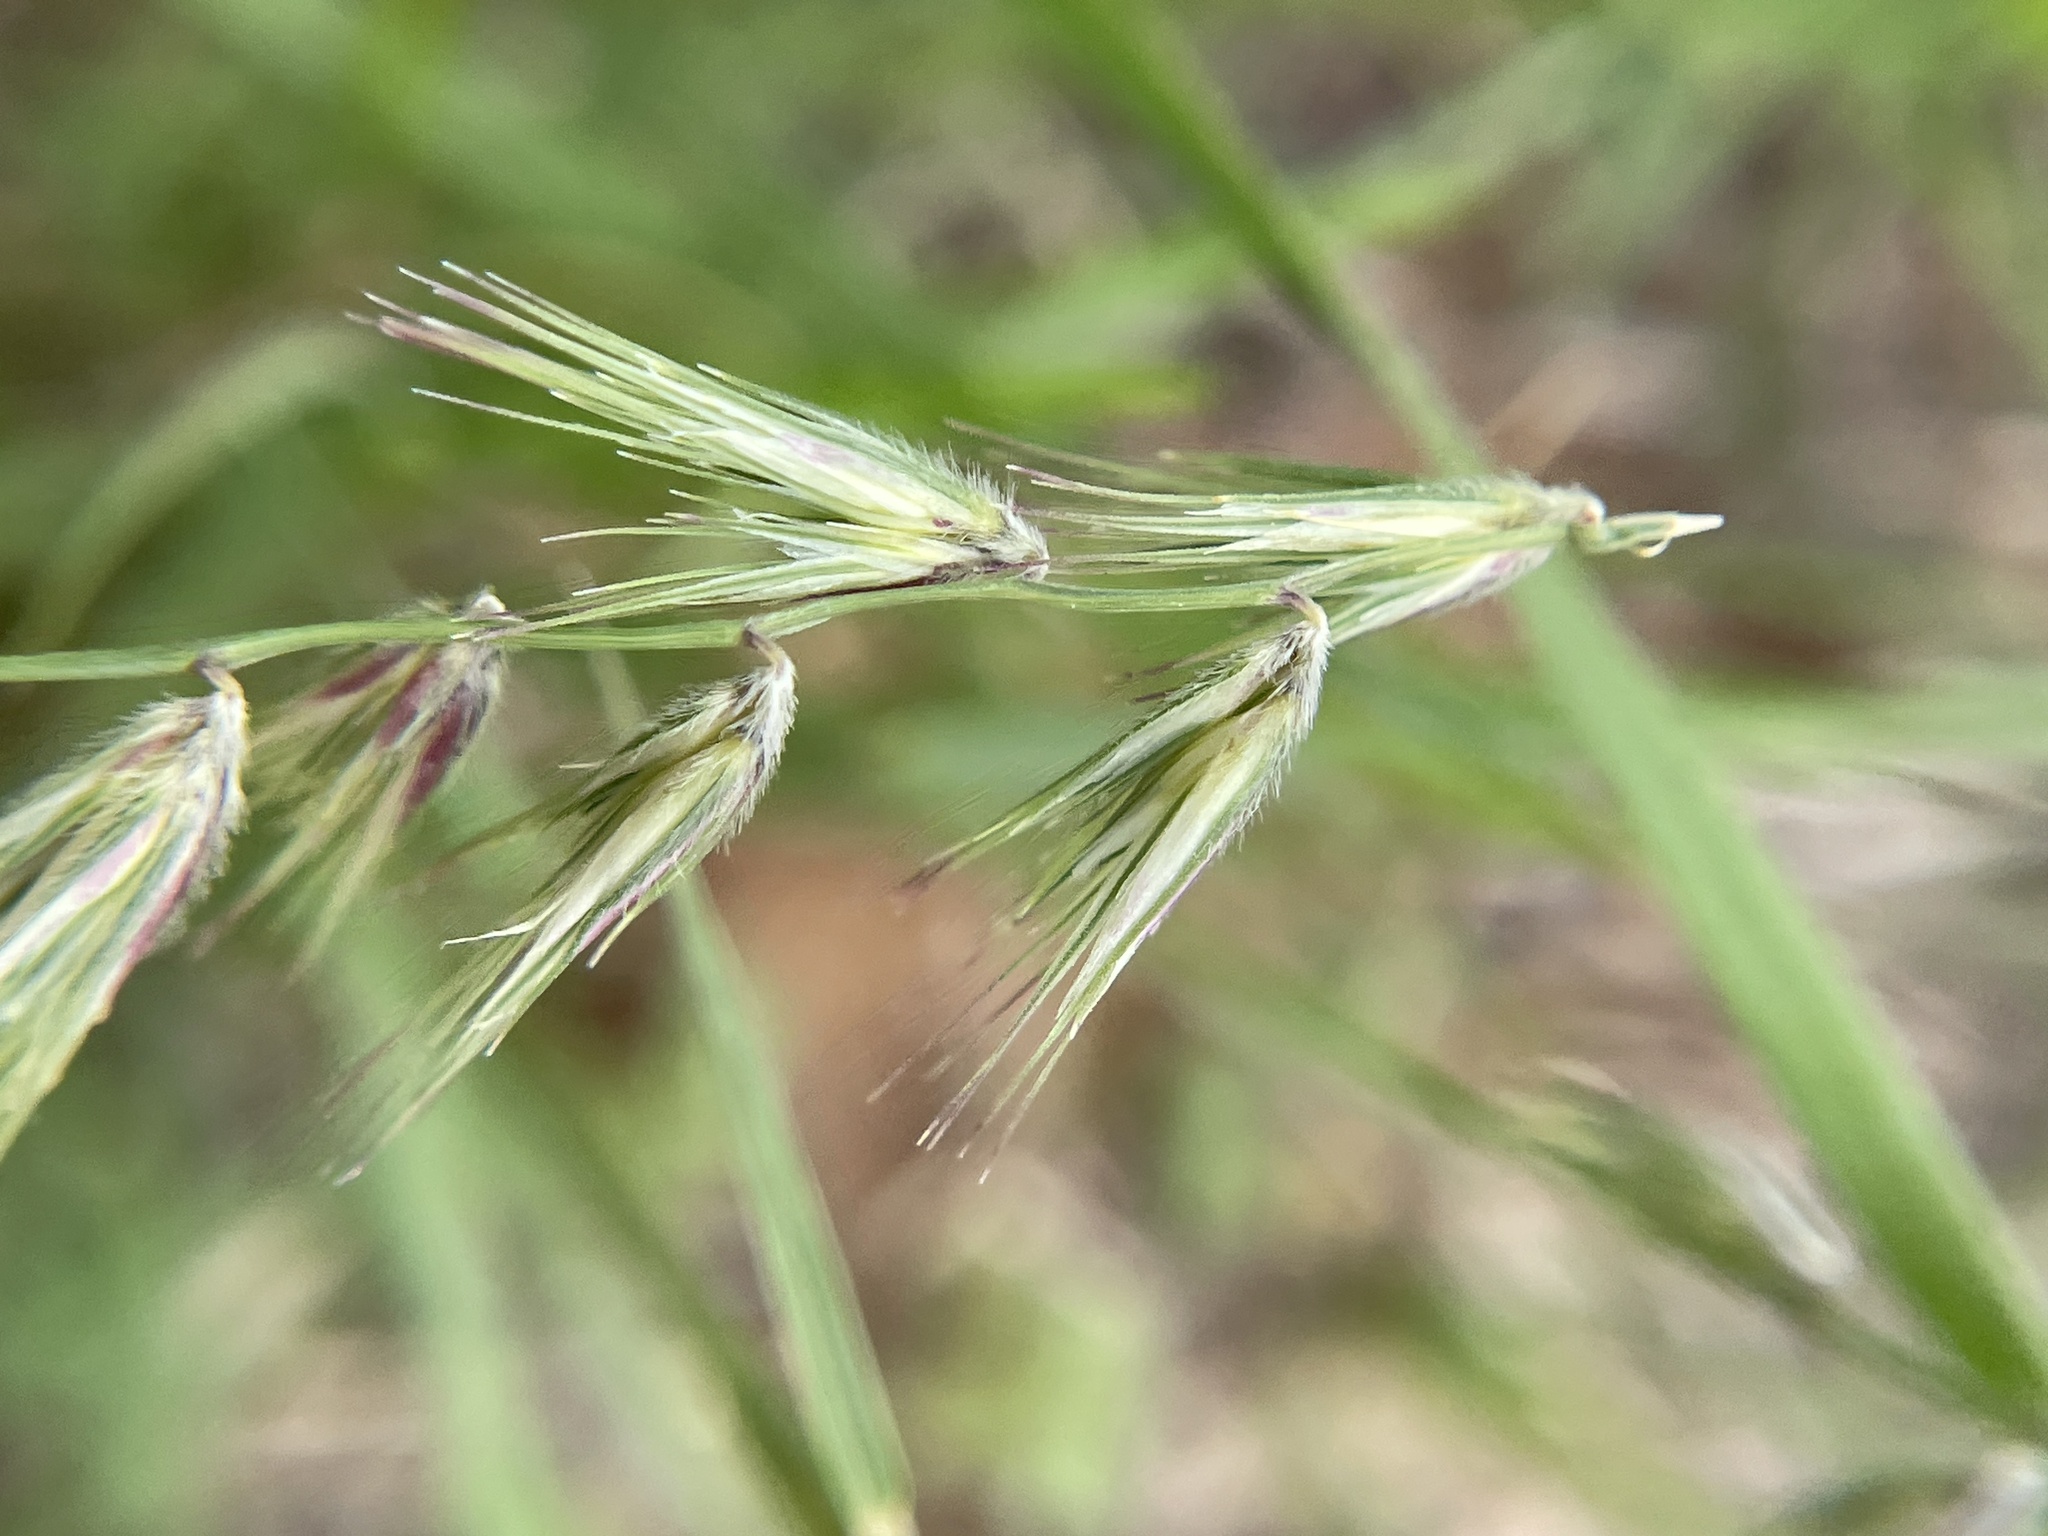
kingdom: Plantae
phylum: Tracheophyta
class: Liliopsida
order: Poales
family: Poaceae
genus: Bouteloua
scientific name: Bouteloua rigidiseta
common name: Texas grama
